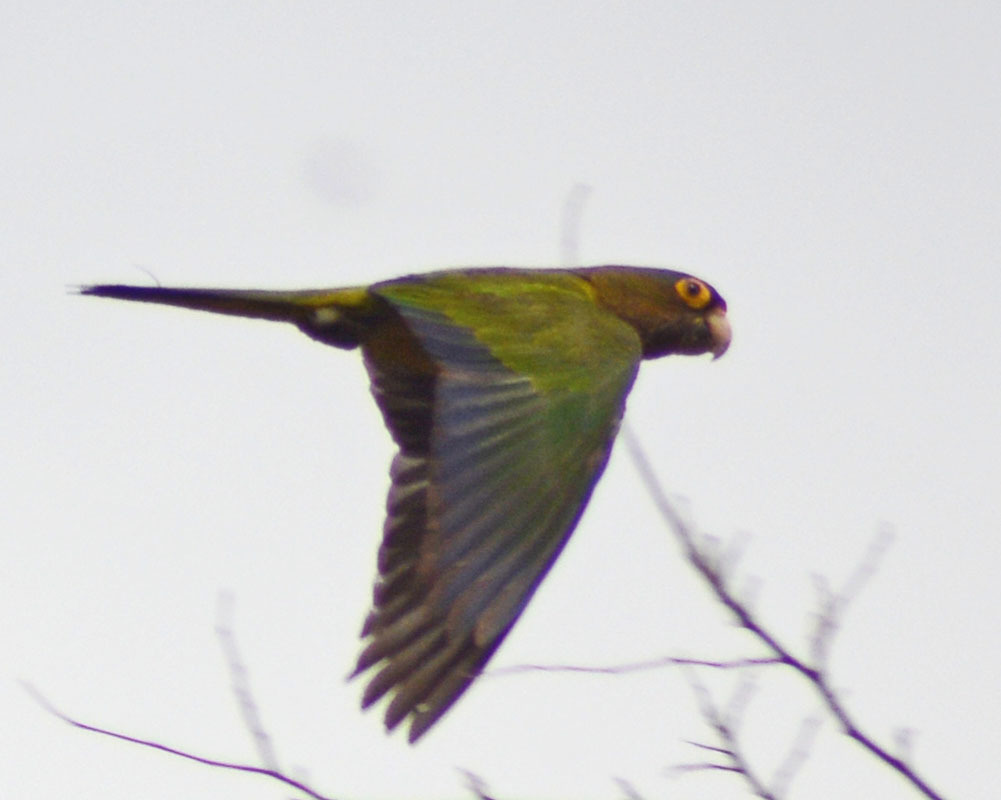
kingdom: Animalia
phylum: Chordata
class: Aves
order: Psittaciformes
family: Psittacidae
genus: Aratinga
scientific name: Aratinga canicularis
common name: Orange-fronted parakeet
